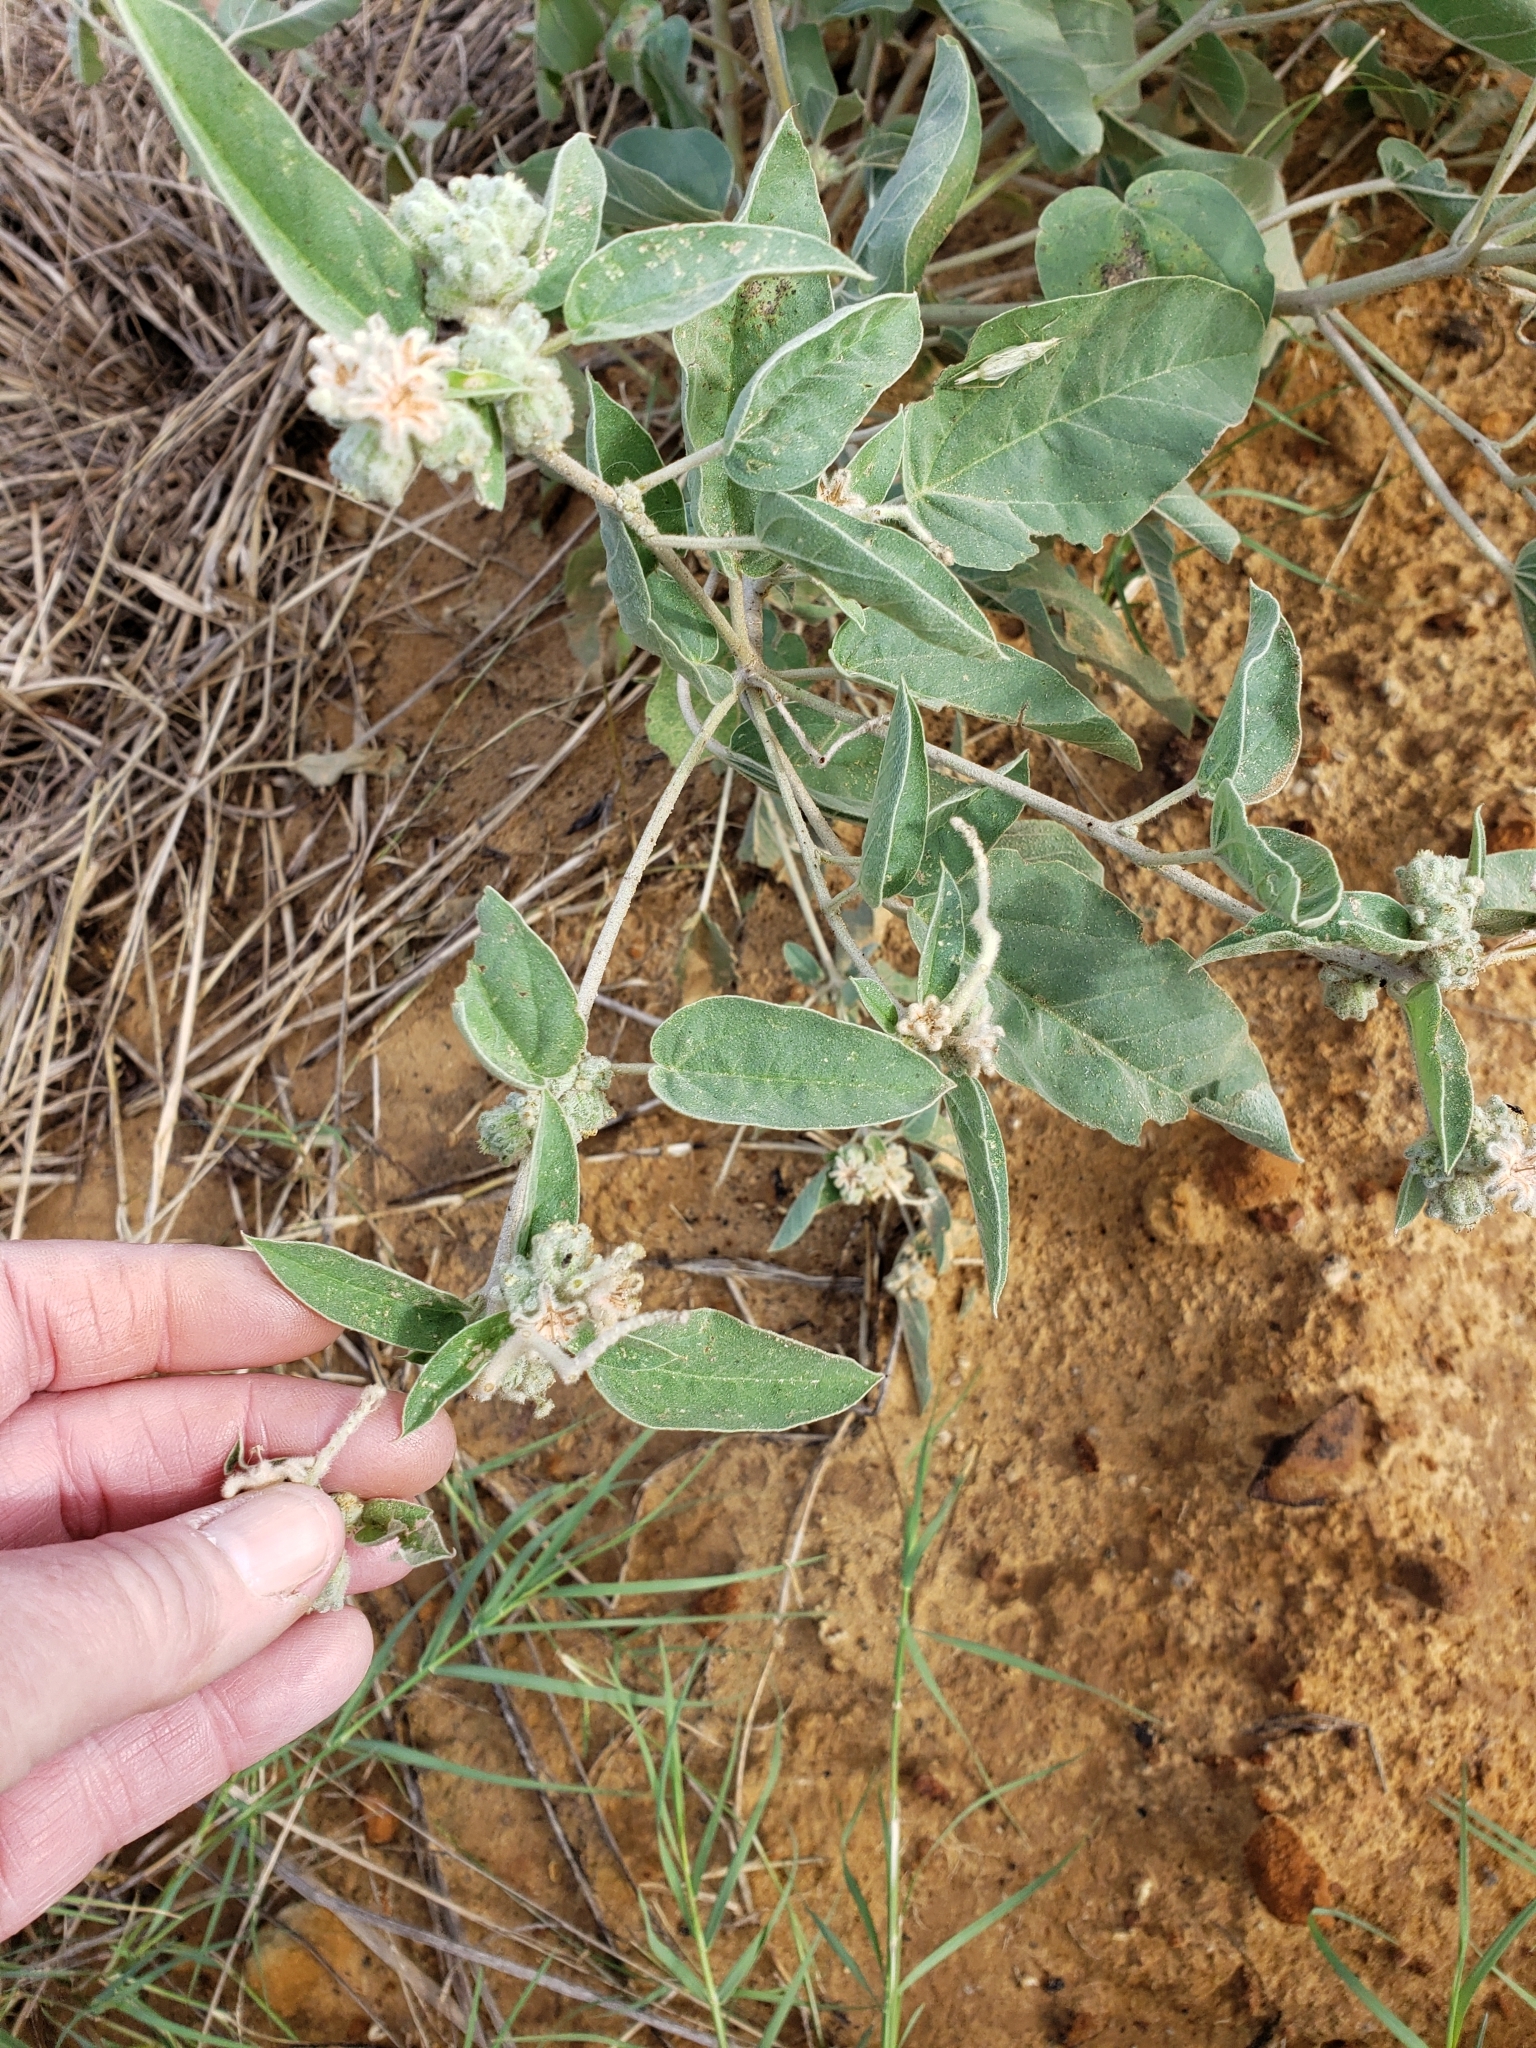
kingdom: Plantae
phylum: Tracheophyta
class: Magnoliopsida
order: Malpighiales
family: Euphorbiaceae
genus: Croton
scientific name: Croton lindheimeri
